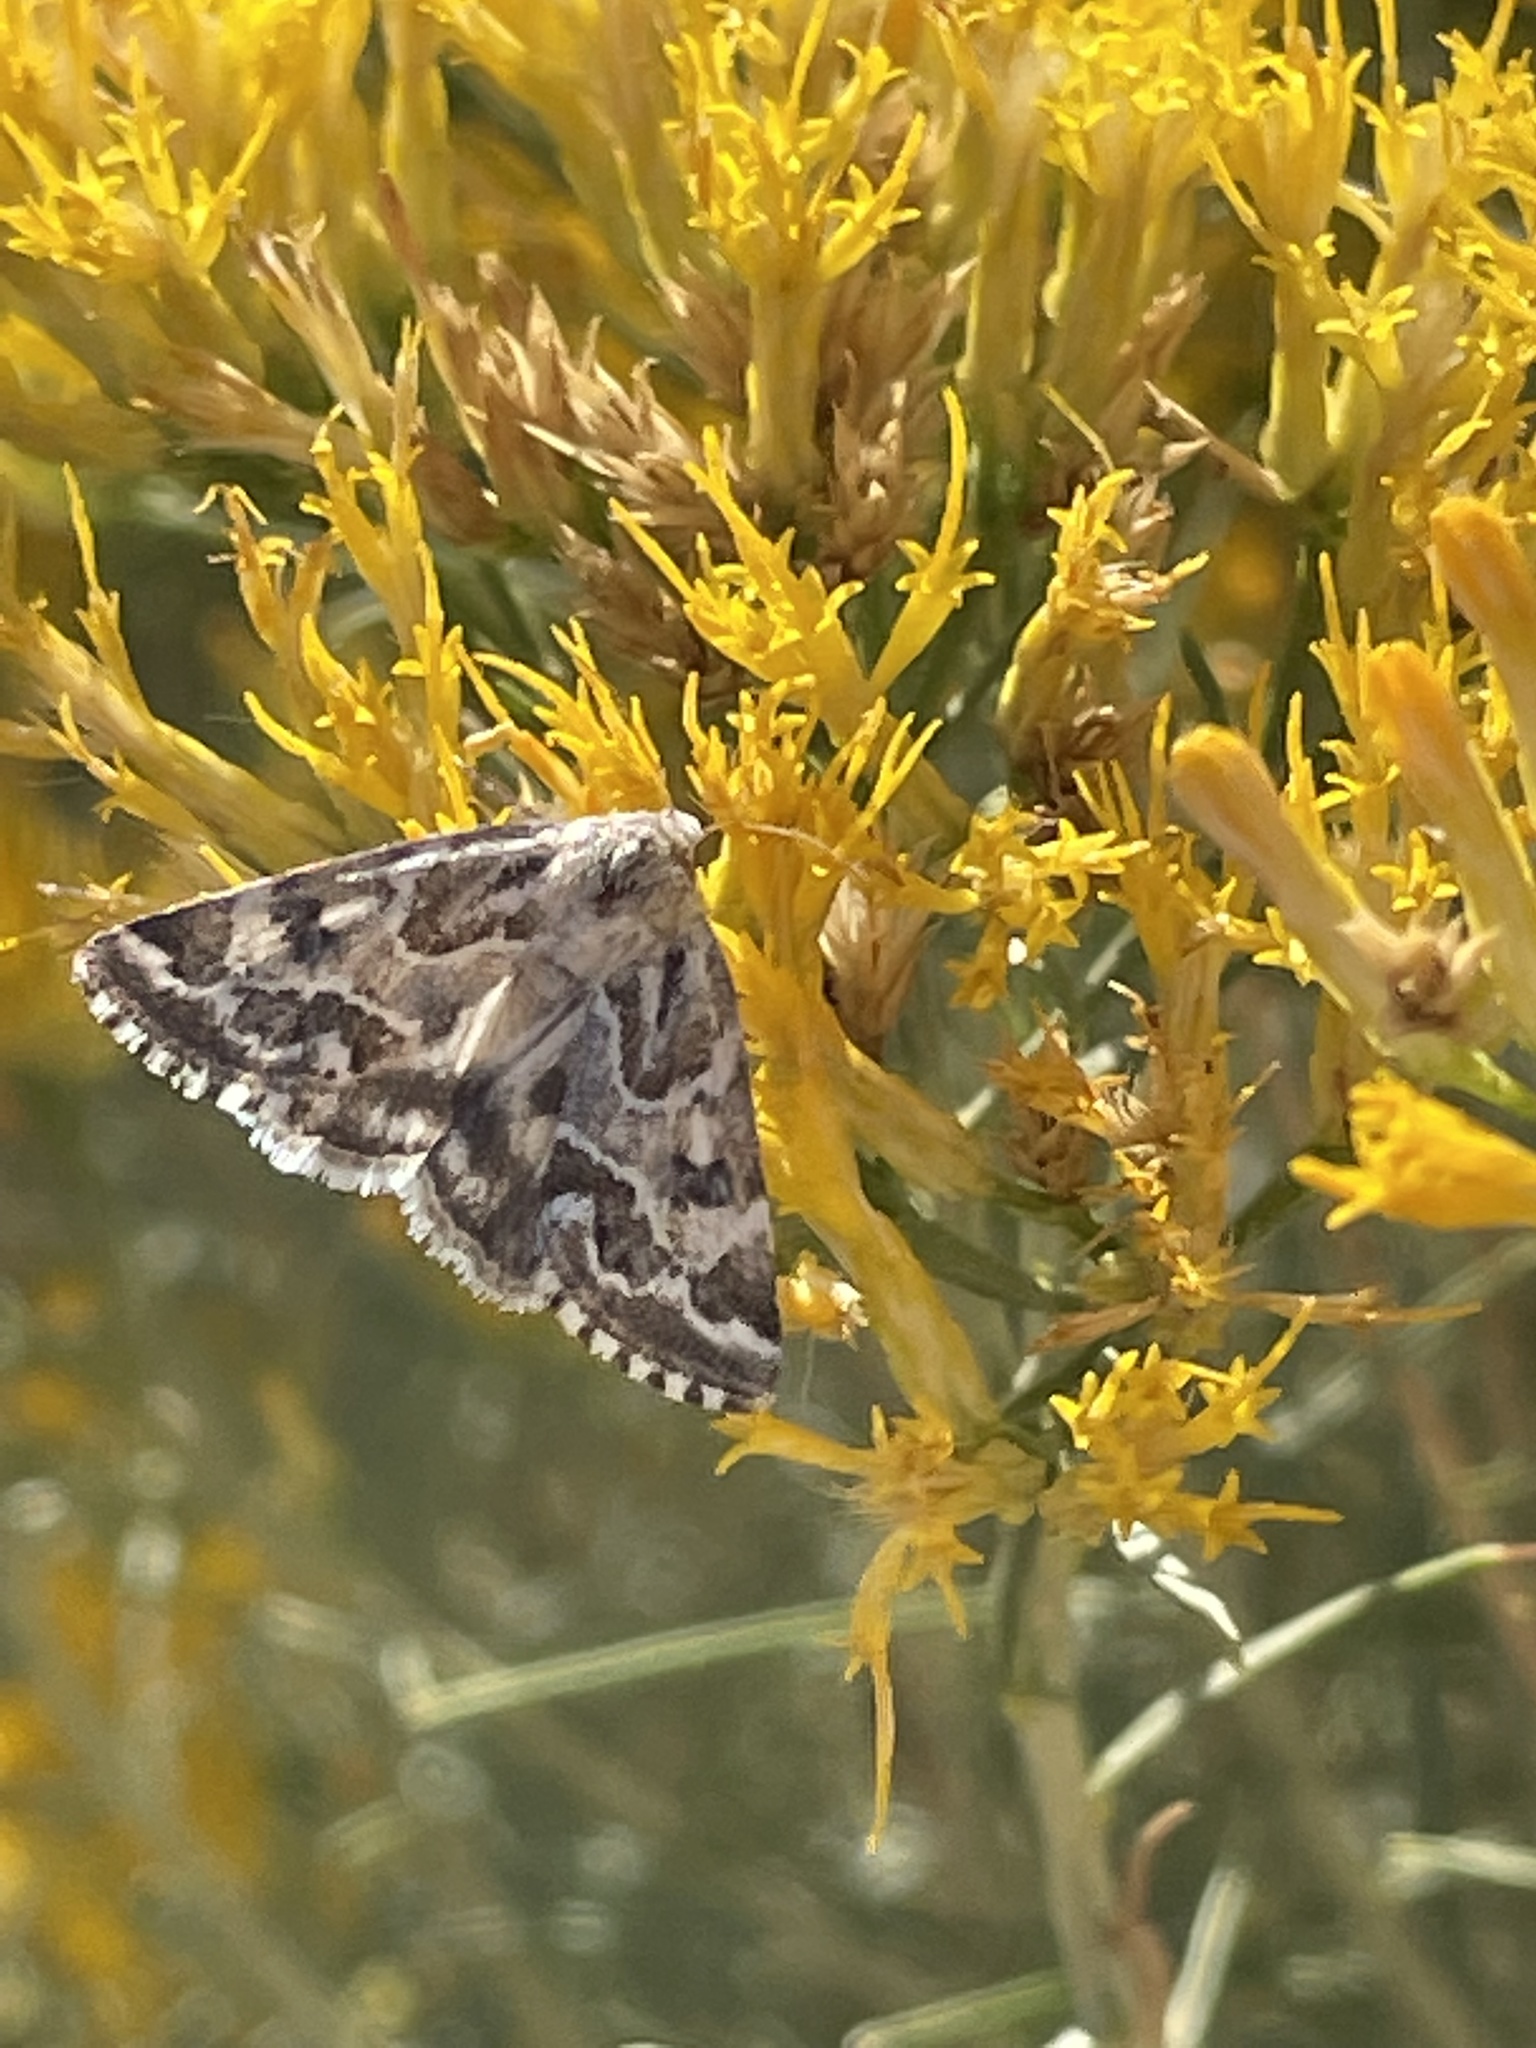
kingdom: Animalia
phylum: Arthropoda
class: Insecta
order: Lepidoptera
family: Noctuidae
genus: Schinia
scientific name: Schinia acutilinea
